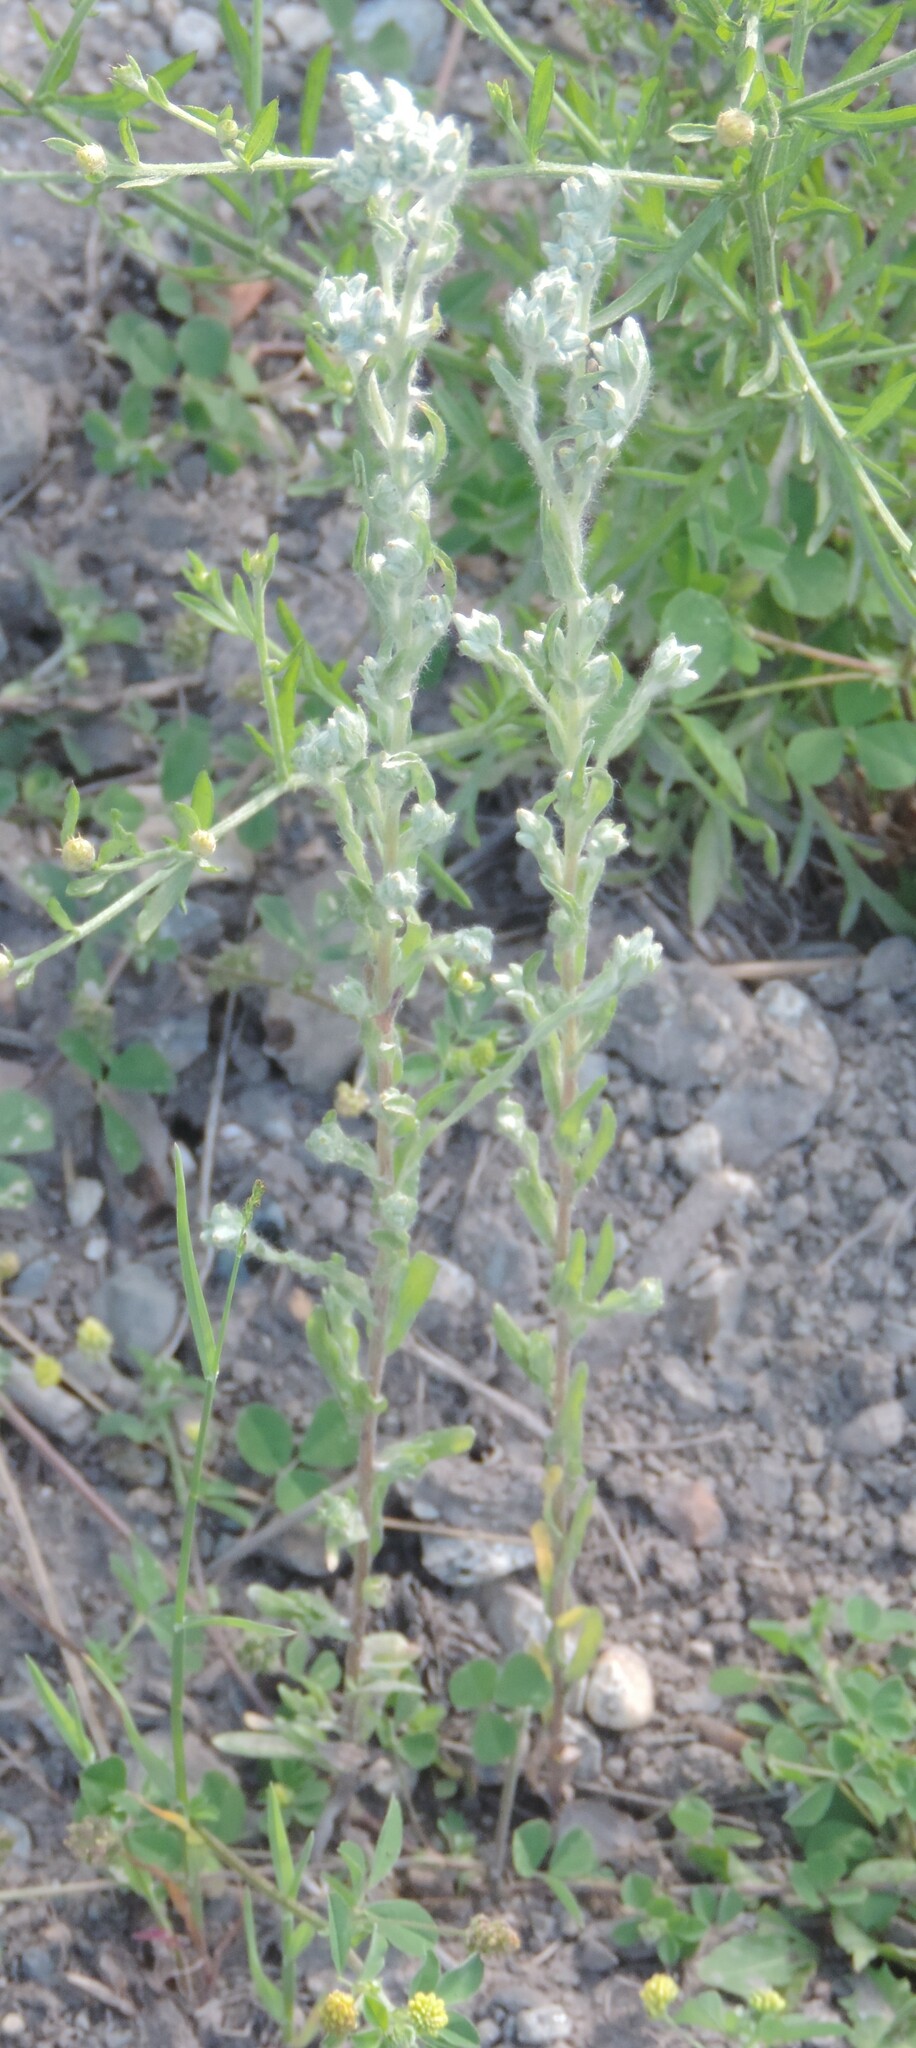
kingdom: Plantae
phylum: Tracheophyta
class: Magnoliopsida
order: Asterales
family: Asteraceae
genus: Filago
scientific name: Filago arvensis
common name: Field cudweed
